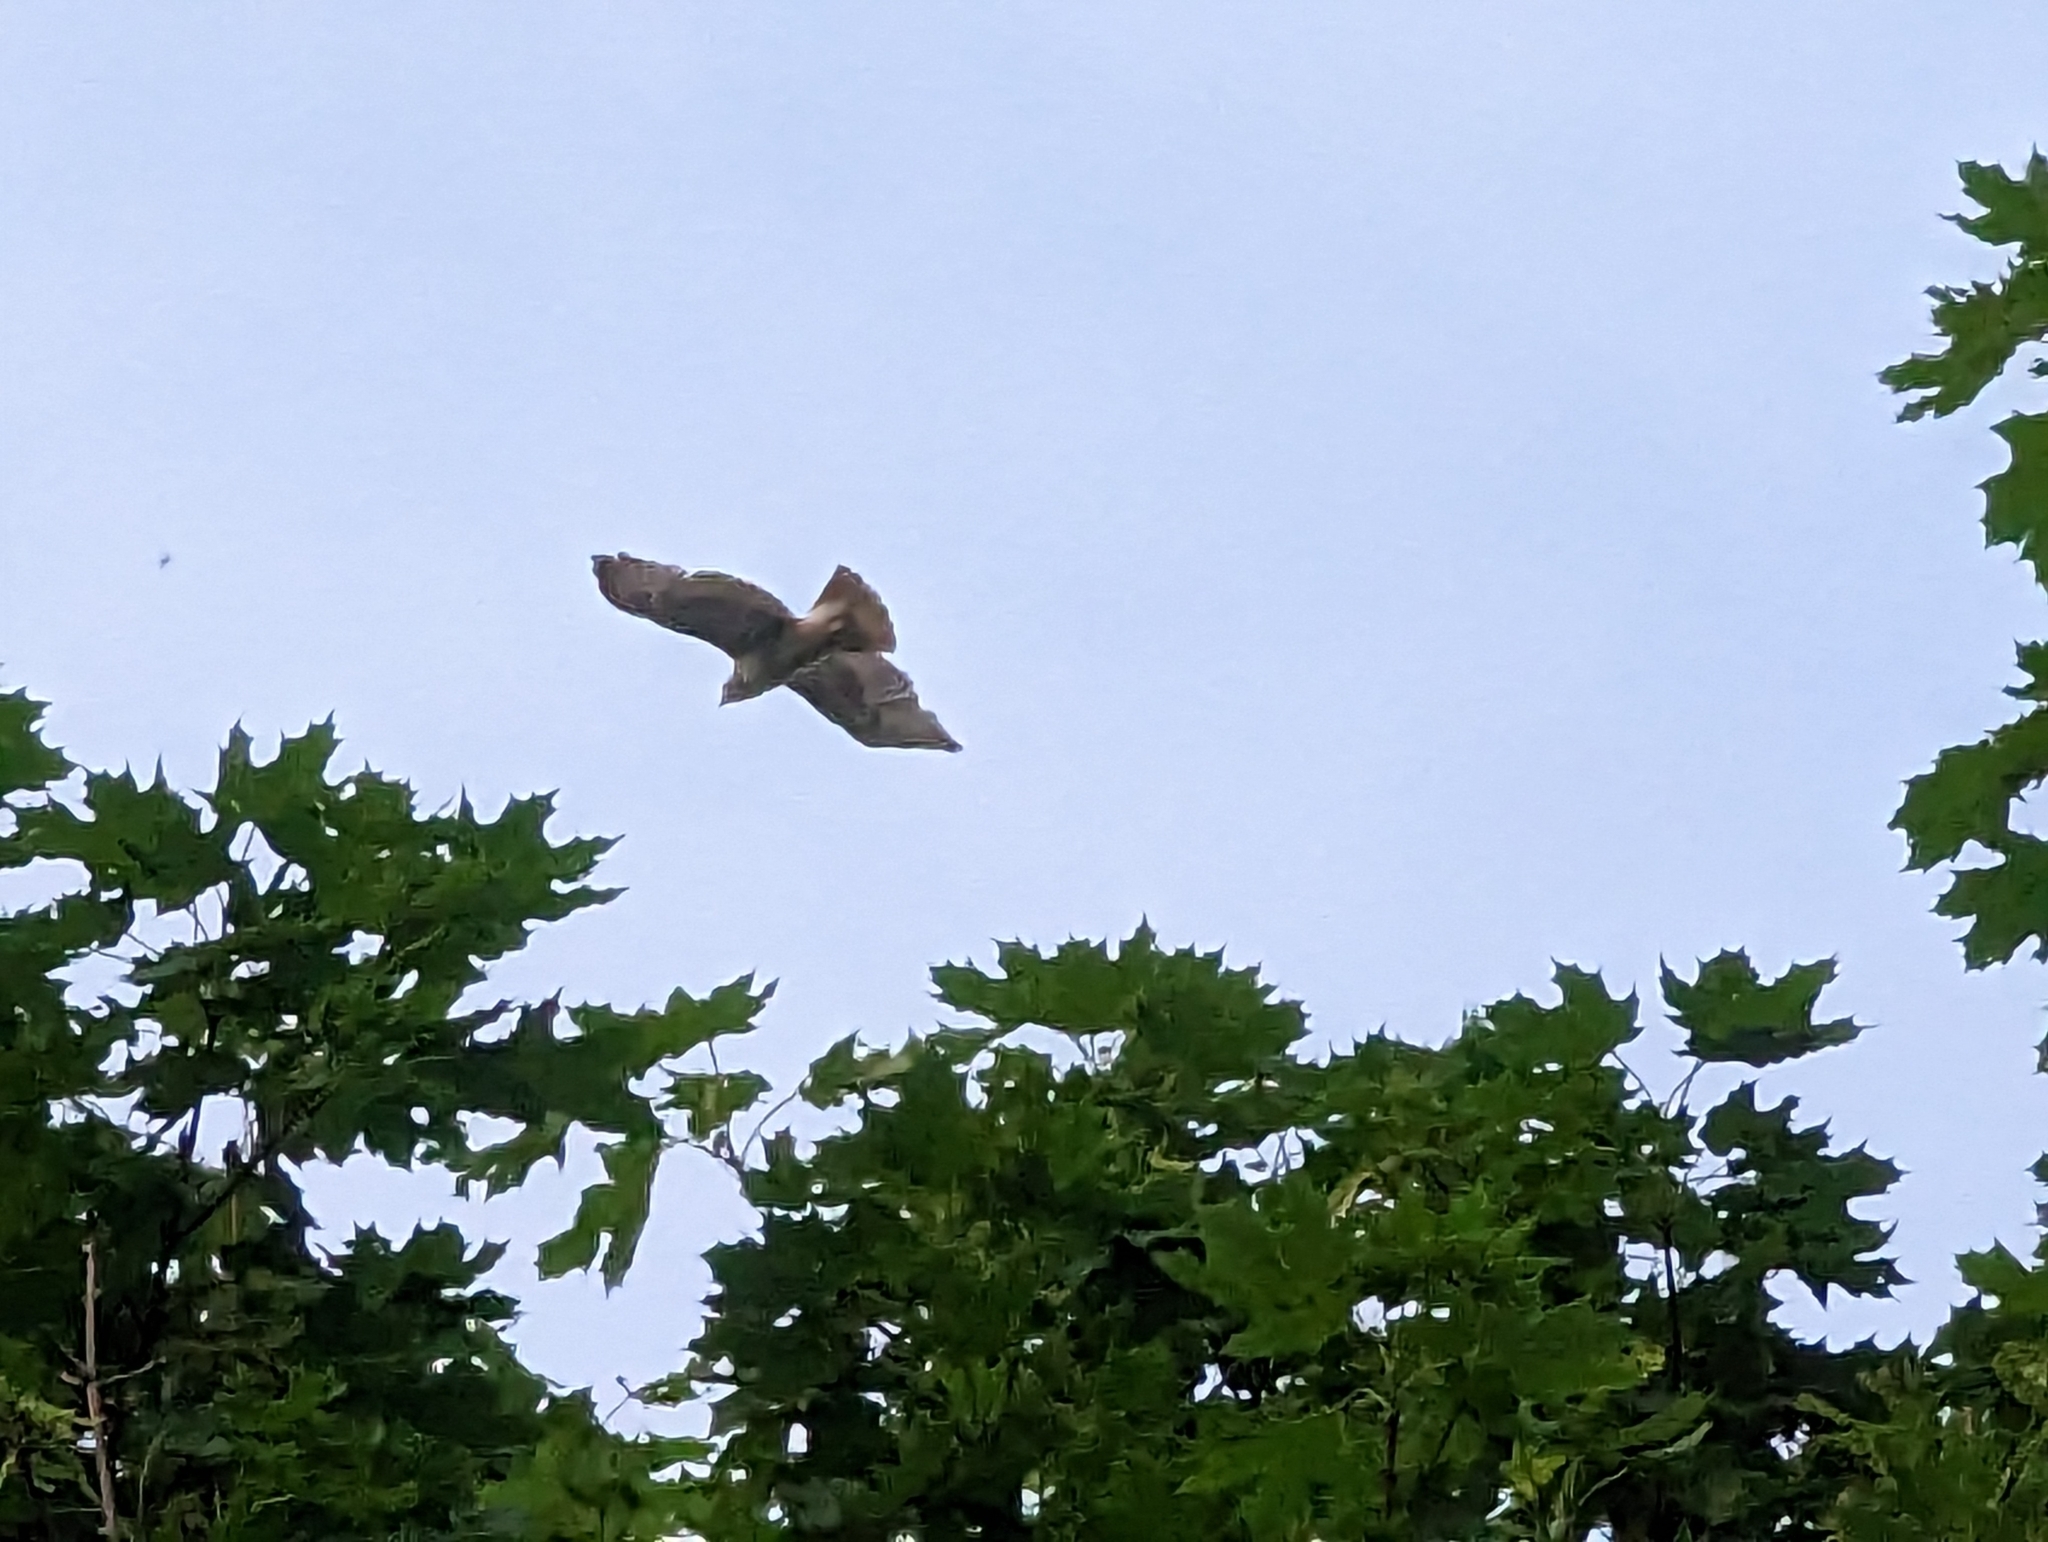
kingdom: Animalia
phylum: Chordata
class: Aves
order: Accipitriformes
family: Accipitridae
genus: Buteo
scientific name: Buteo jamaicensis
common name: Red-tailed hawk
